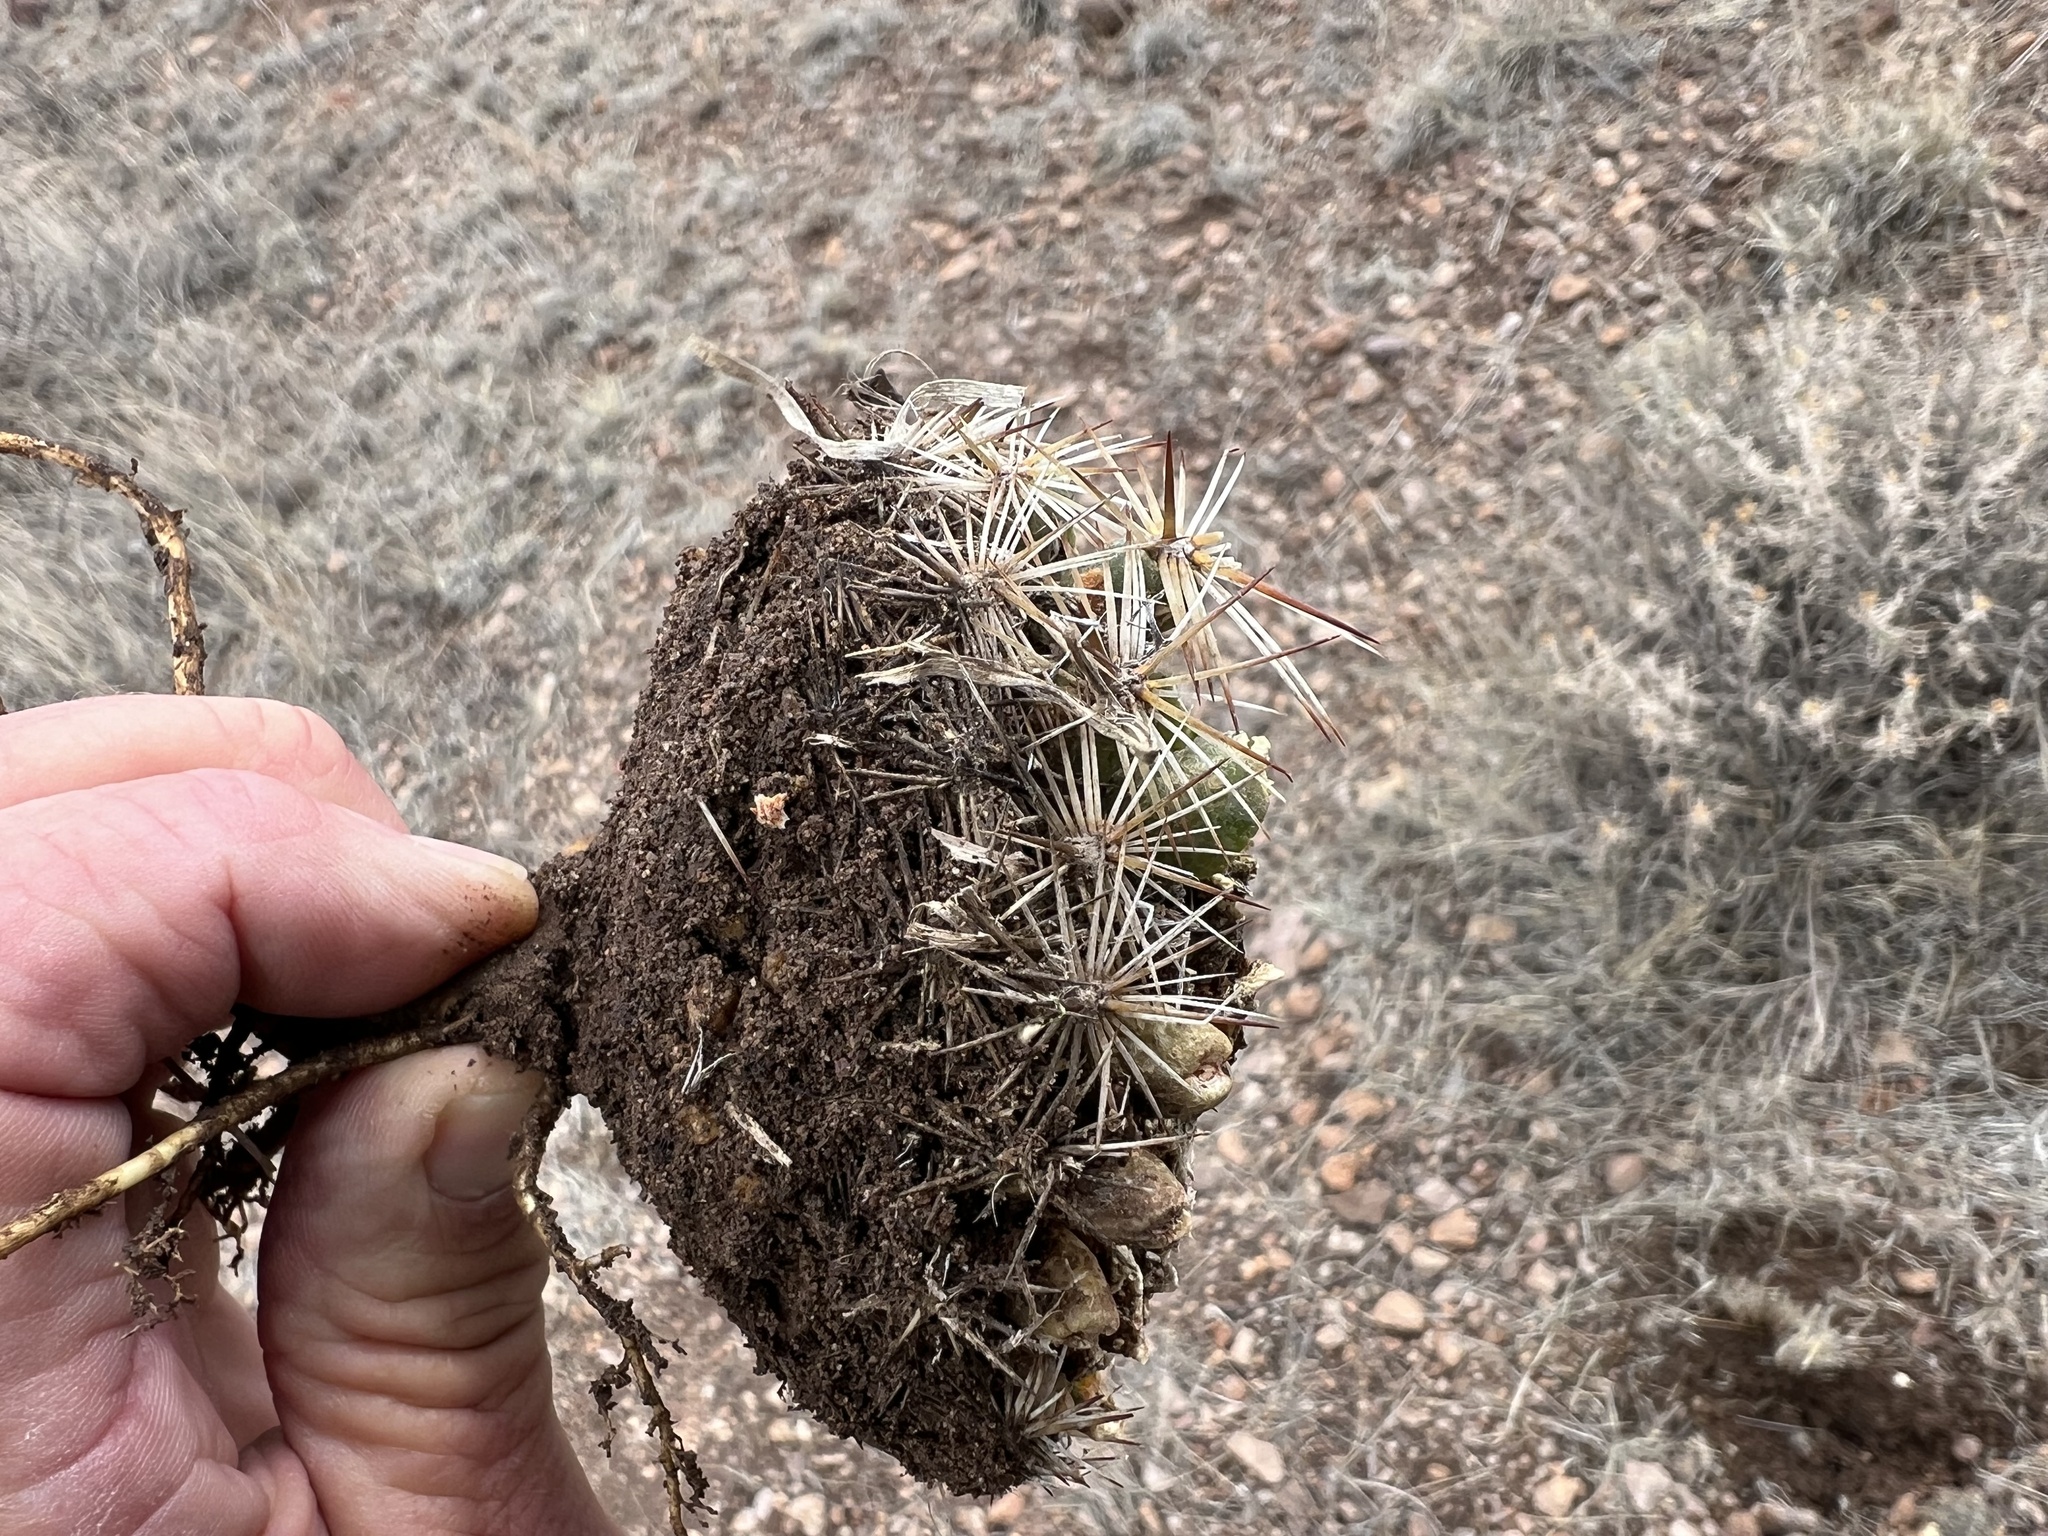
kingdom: Plantae
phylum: Tracheophyta
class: Magnoliopsida
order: Caryophyllales
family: Cactaceae
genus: Pelecyphora
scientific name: Pelecyphora vivipara
